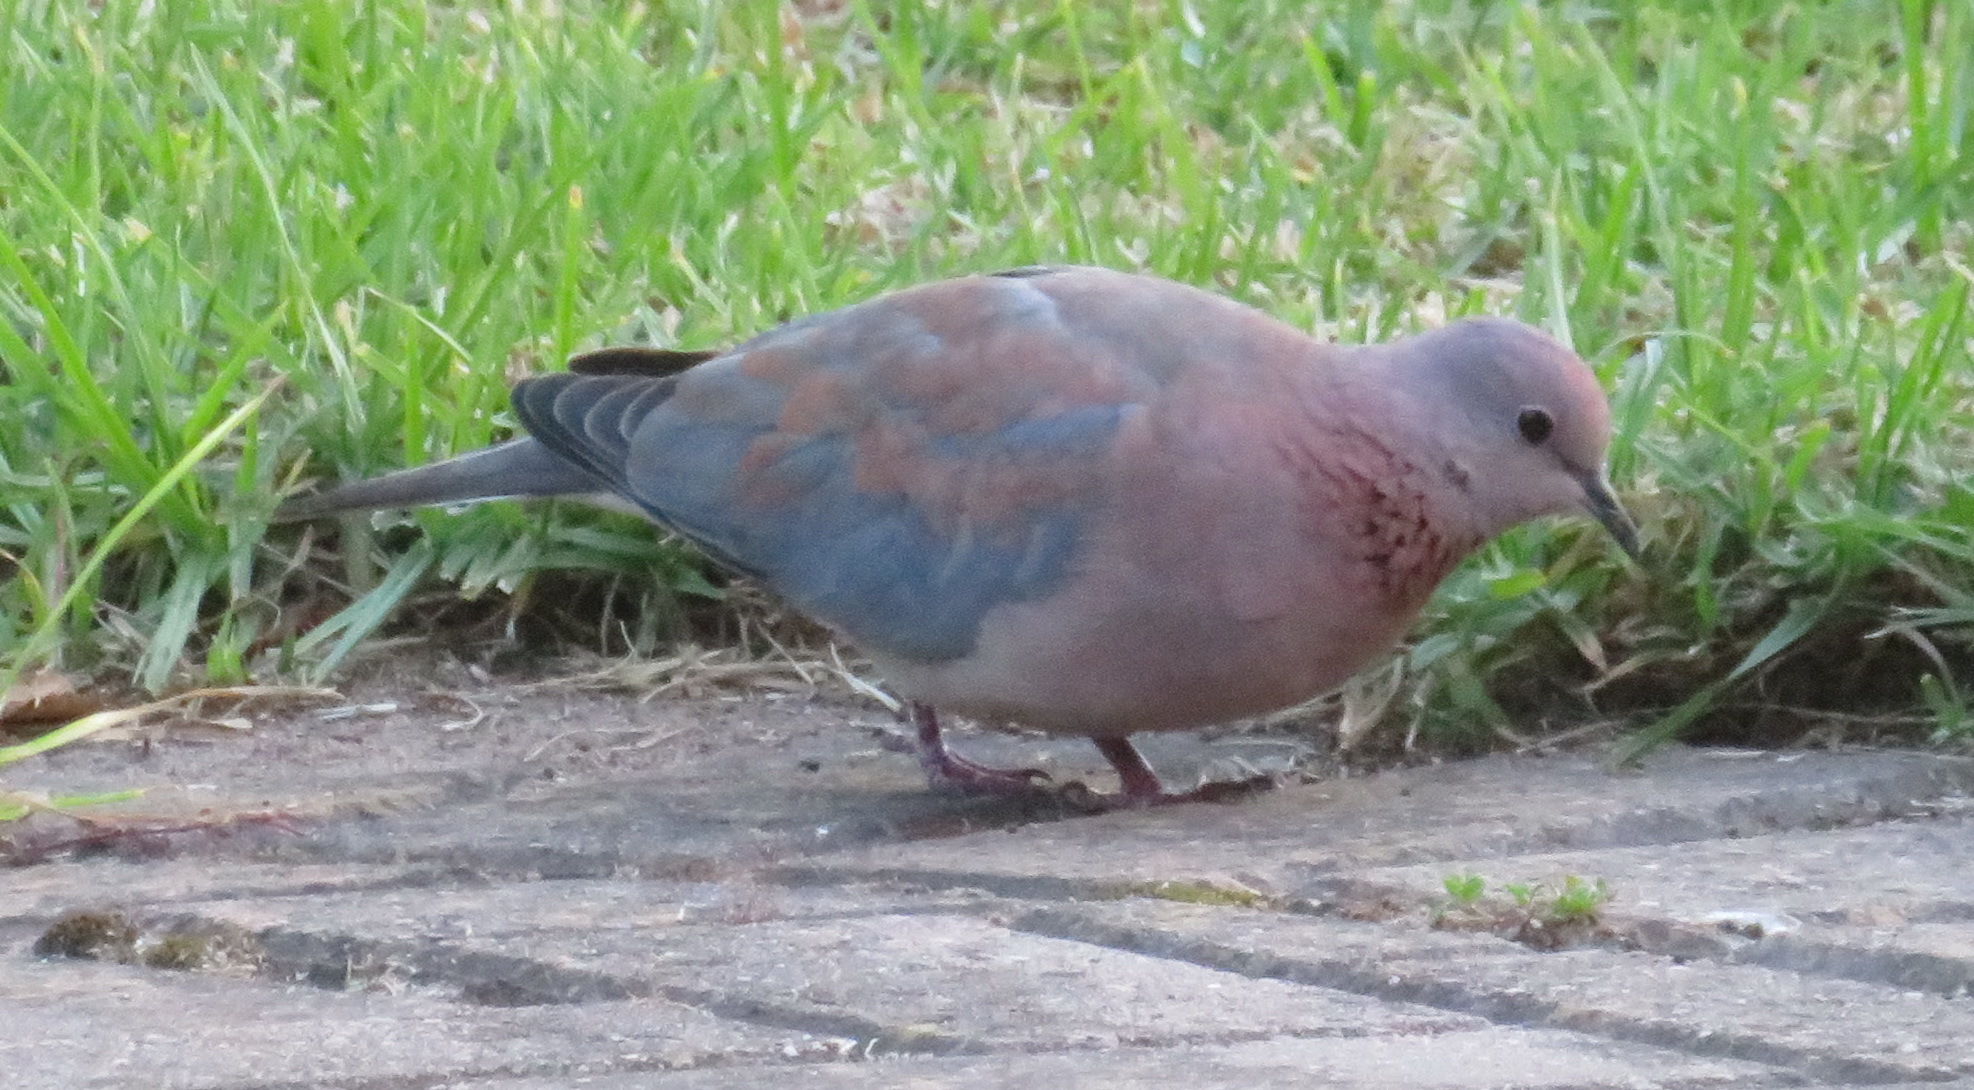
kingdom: Animalia
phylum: Chordata
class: Aves
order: Columbiformes
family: Columbidae
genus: Spilopelia
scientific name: Spilopelia senegalensis
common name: Laughing dove
